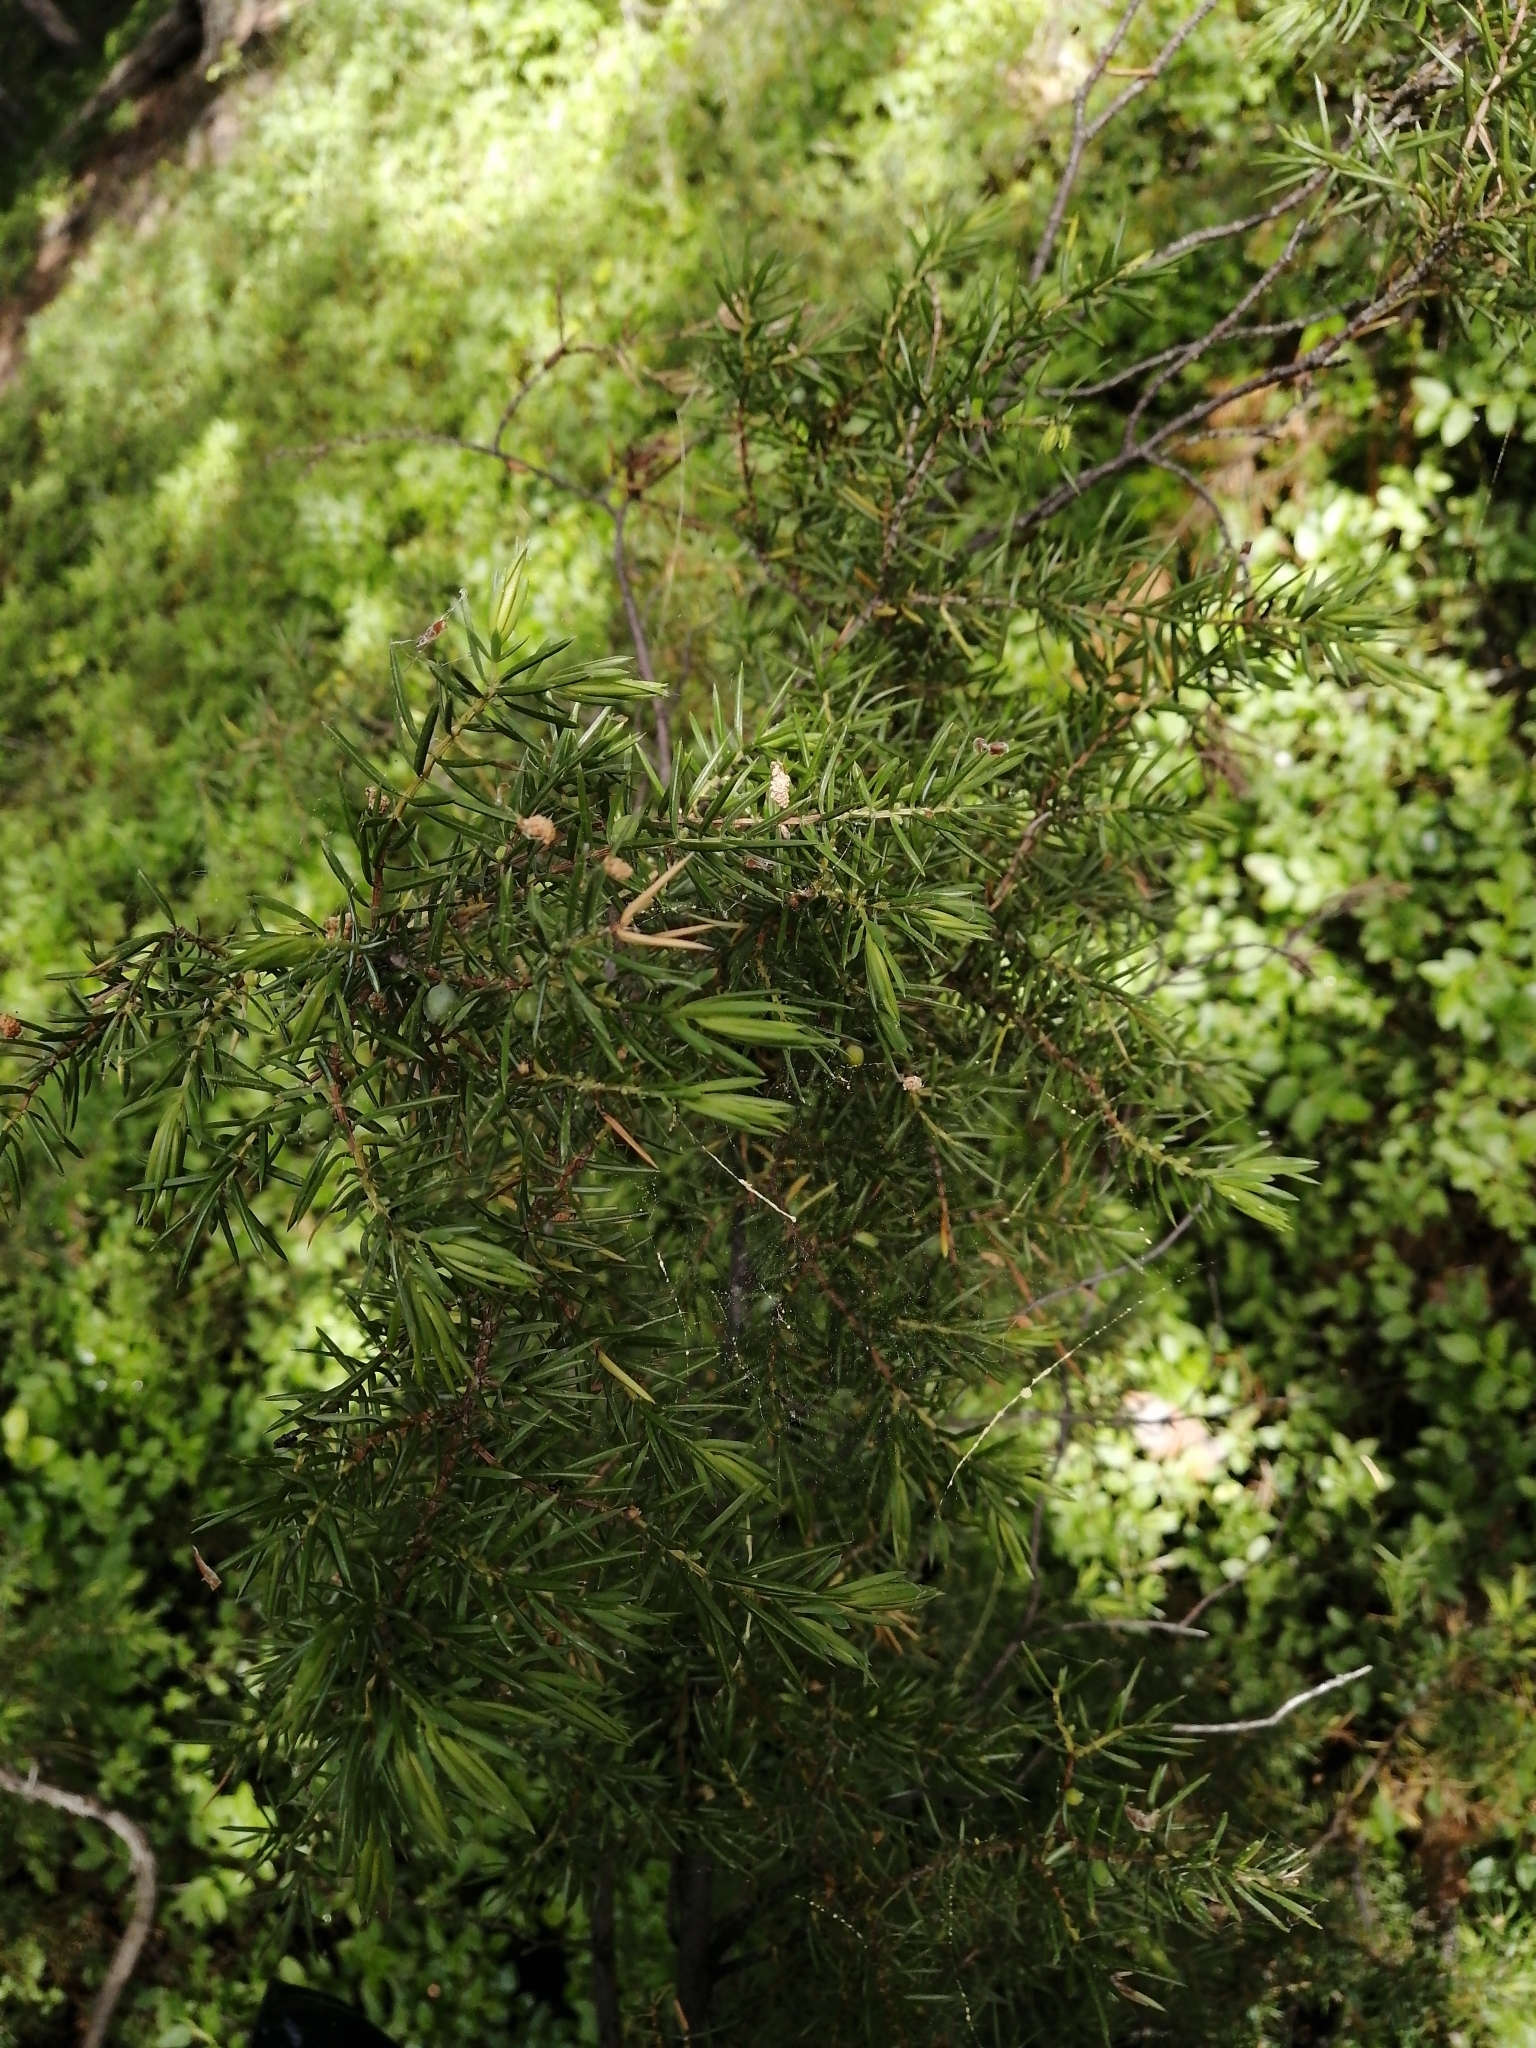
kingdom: Plantae
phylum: Tracheophyta
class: Pinopsida
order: Pinales
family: Cupressaceae
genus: Juniperus
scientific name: Juniperus communis
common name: Common juniper
